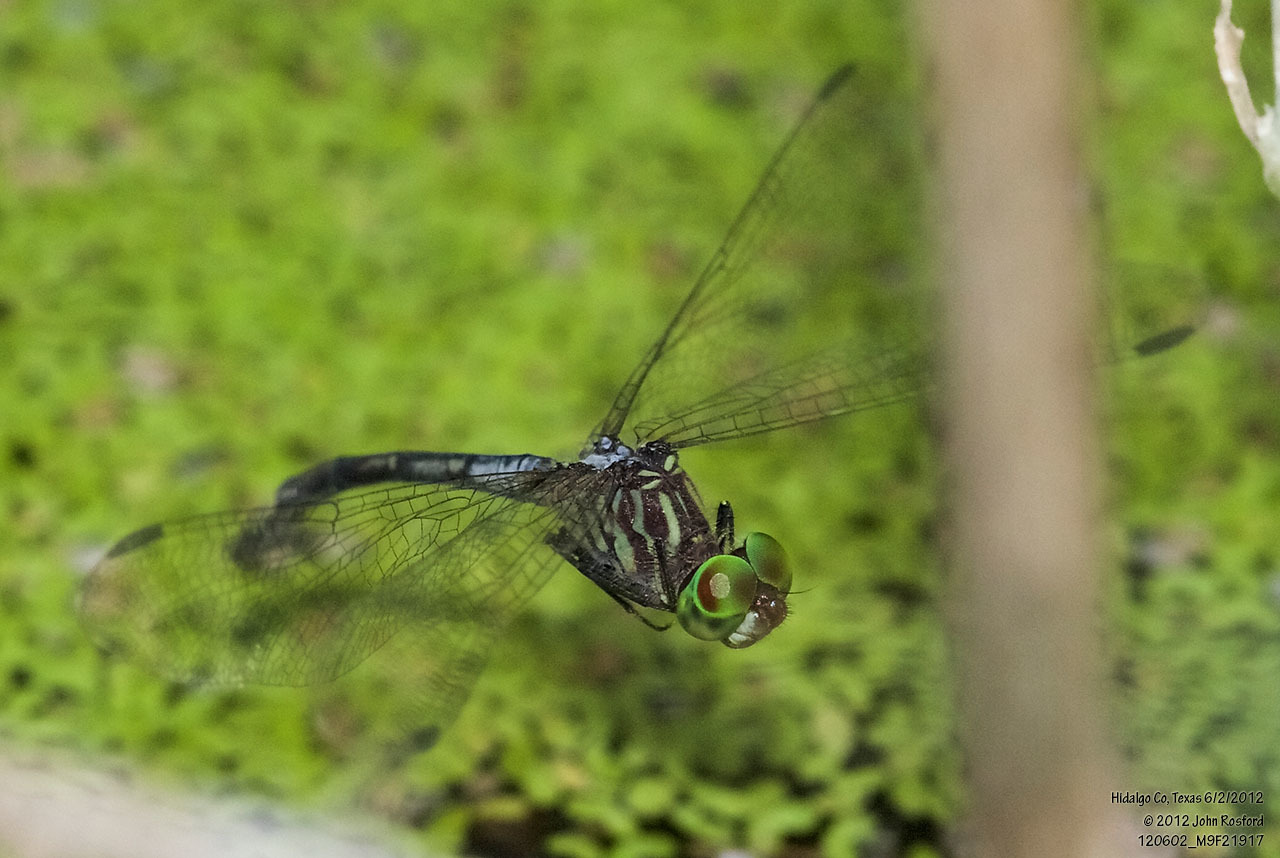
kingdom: Animalia
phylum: Arthropoda
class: Insecta
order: Odonata
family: Libellulidae
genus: Micrathyria
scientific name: Micrathyria dissocians
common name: Caribbean dasher
